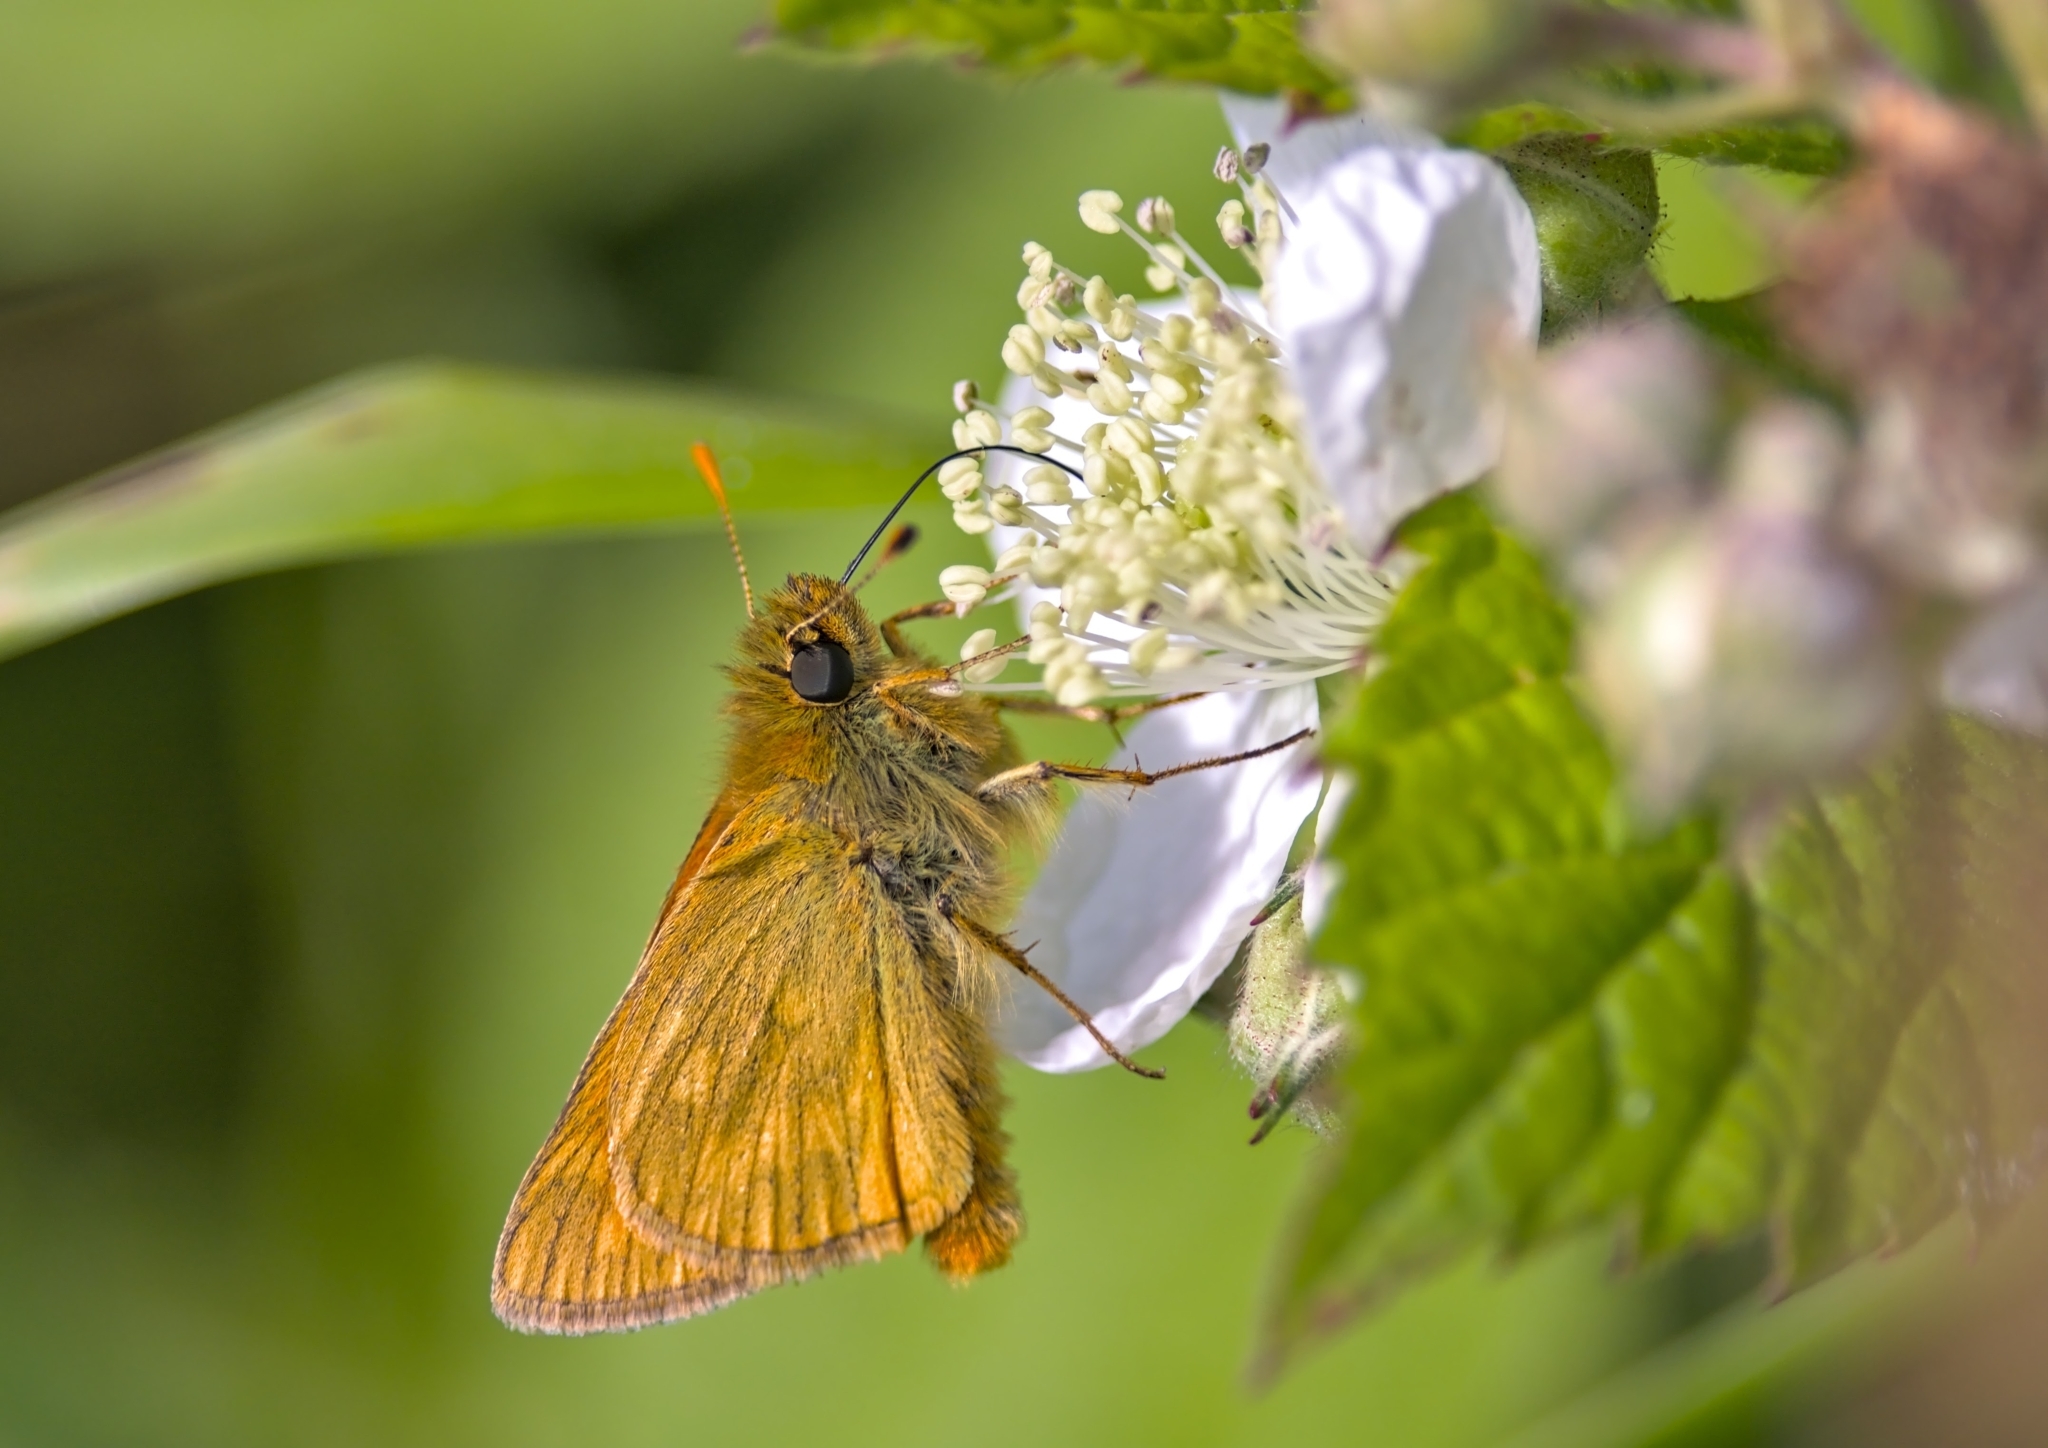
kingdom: Animalia
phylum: Arthropoda
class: Insecta
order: Lepidoptera
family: Hesperiidae
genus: Ochlodes
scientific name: Ochlodes venata
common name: Large skipper
